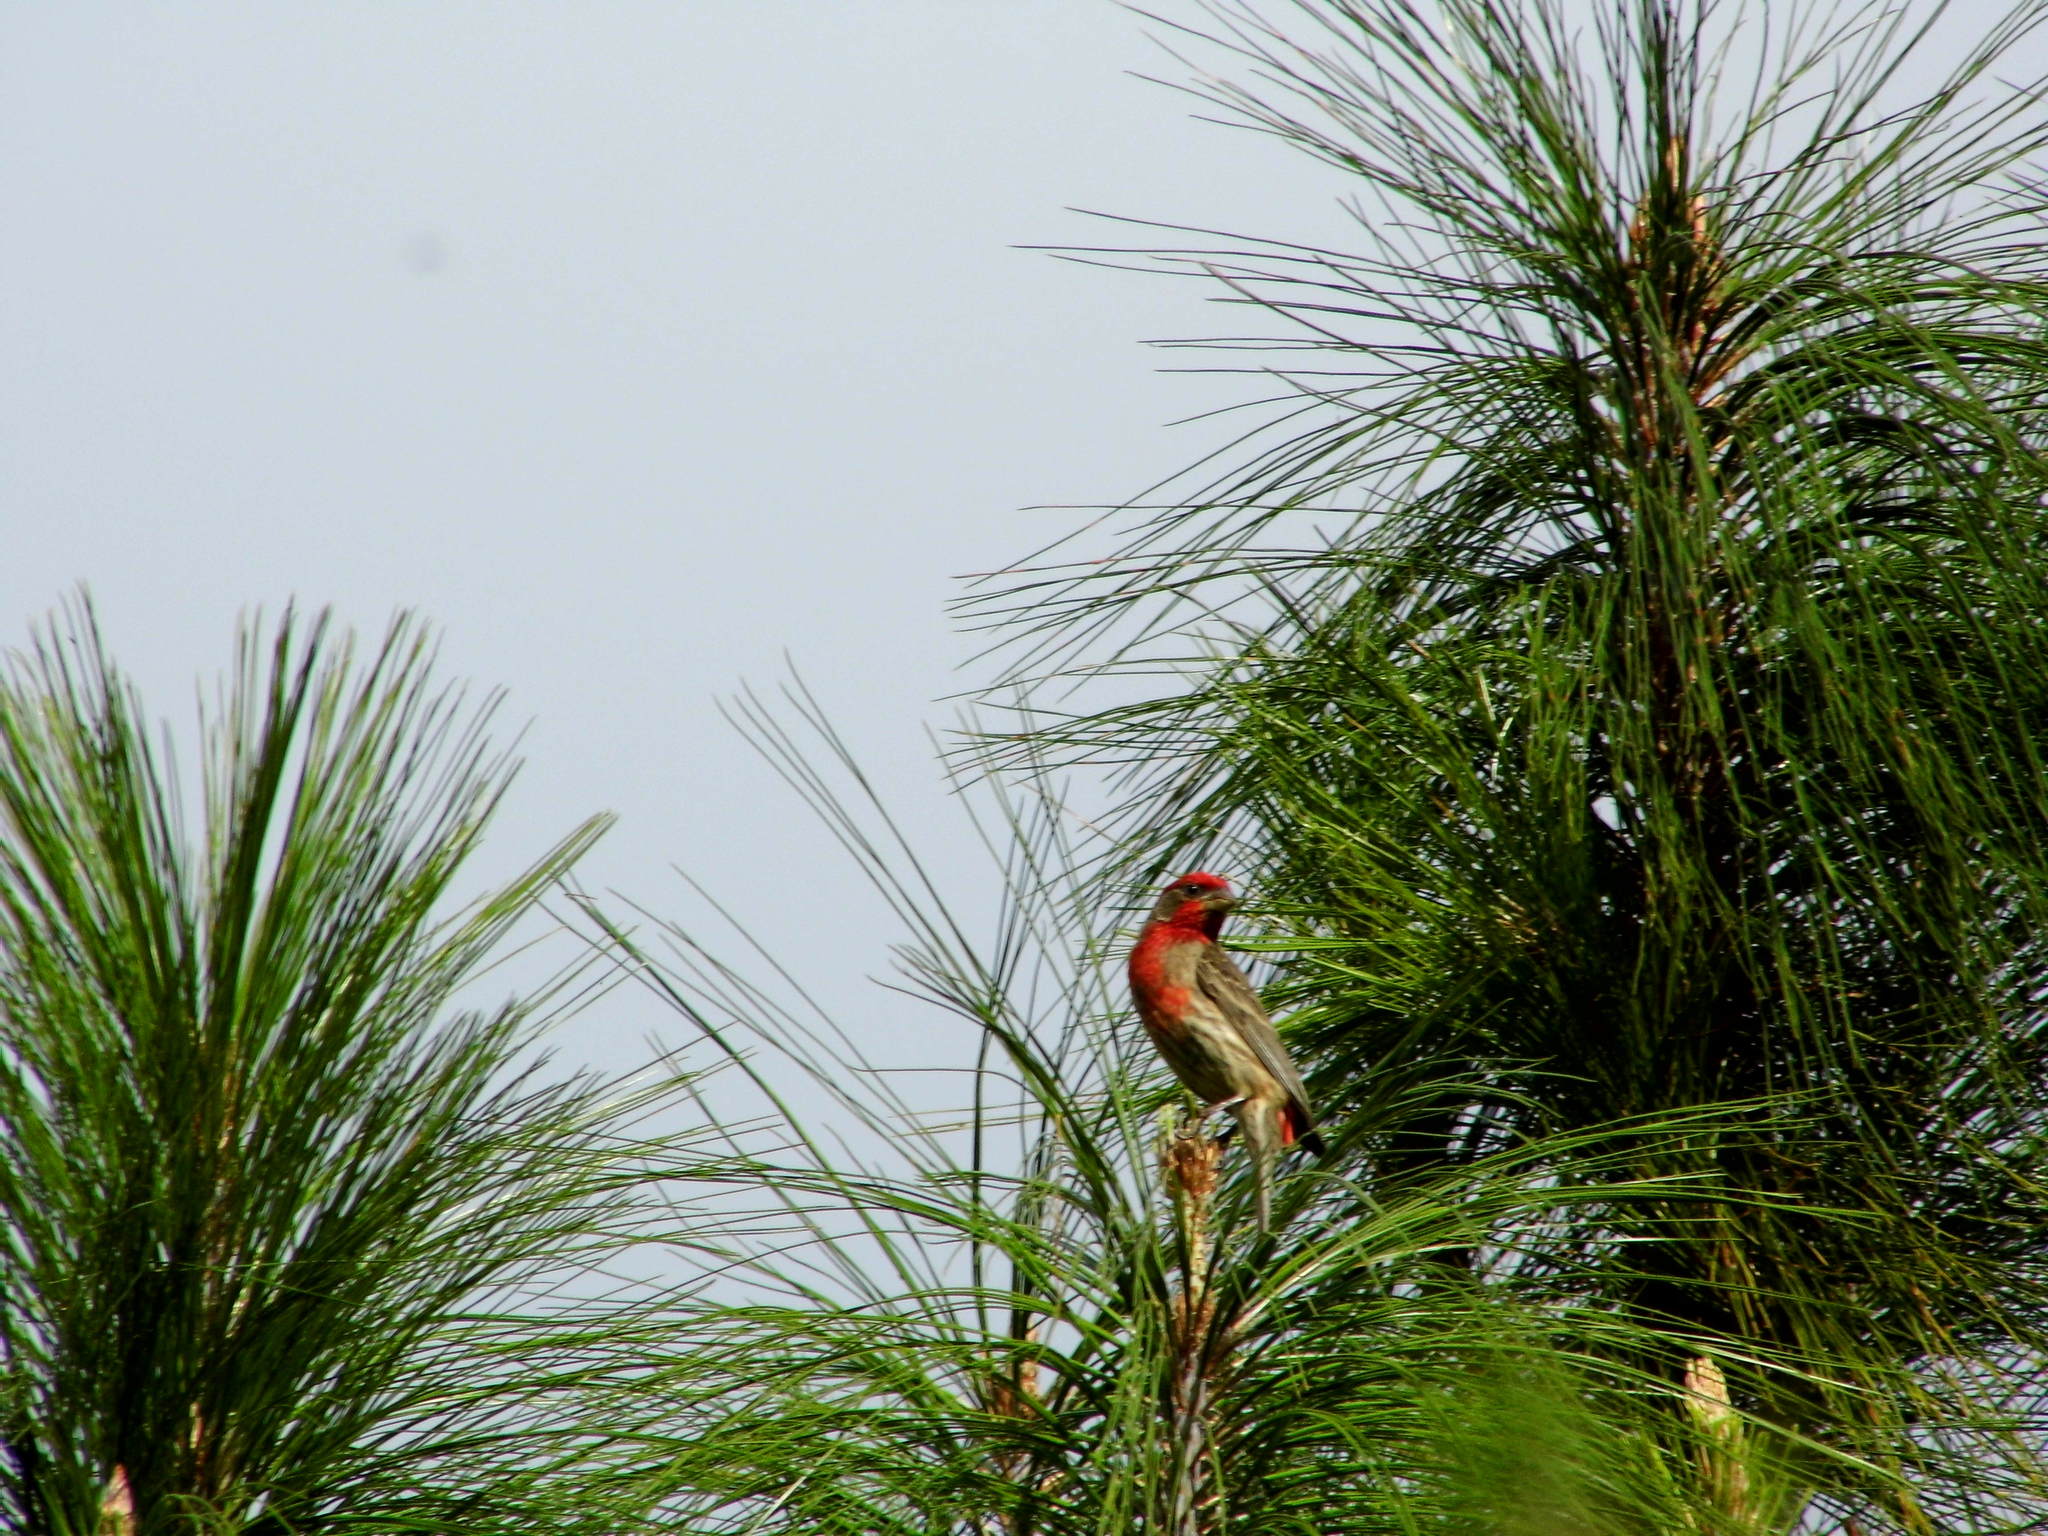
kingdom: Animalia
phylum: Chordata
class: Aves
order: Passeriformes
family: Fringillidae
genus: Haemorhous
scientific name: Haemorhous mexicanus
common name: House finch
